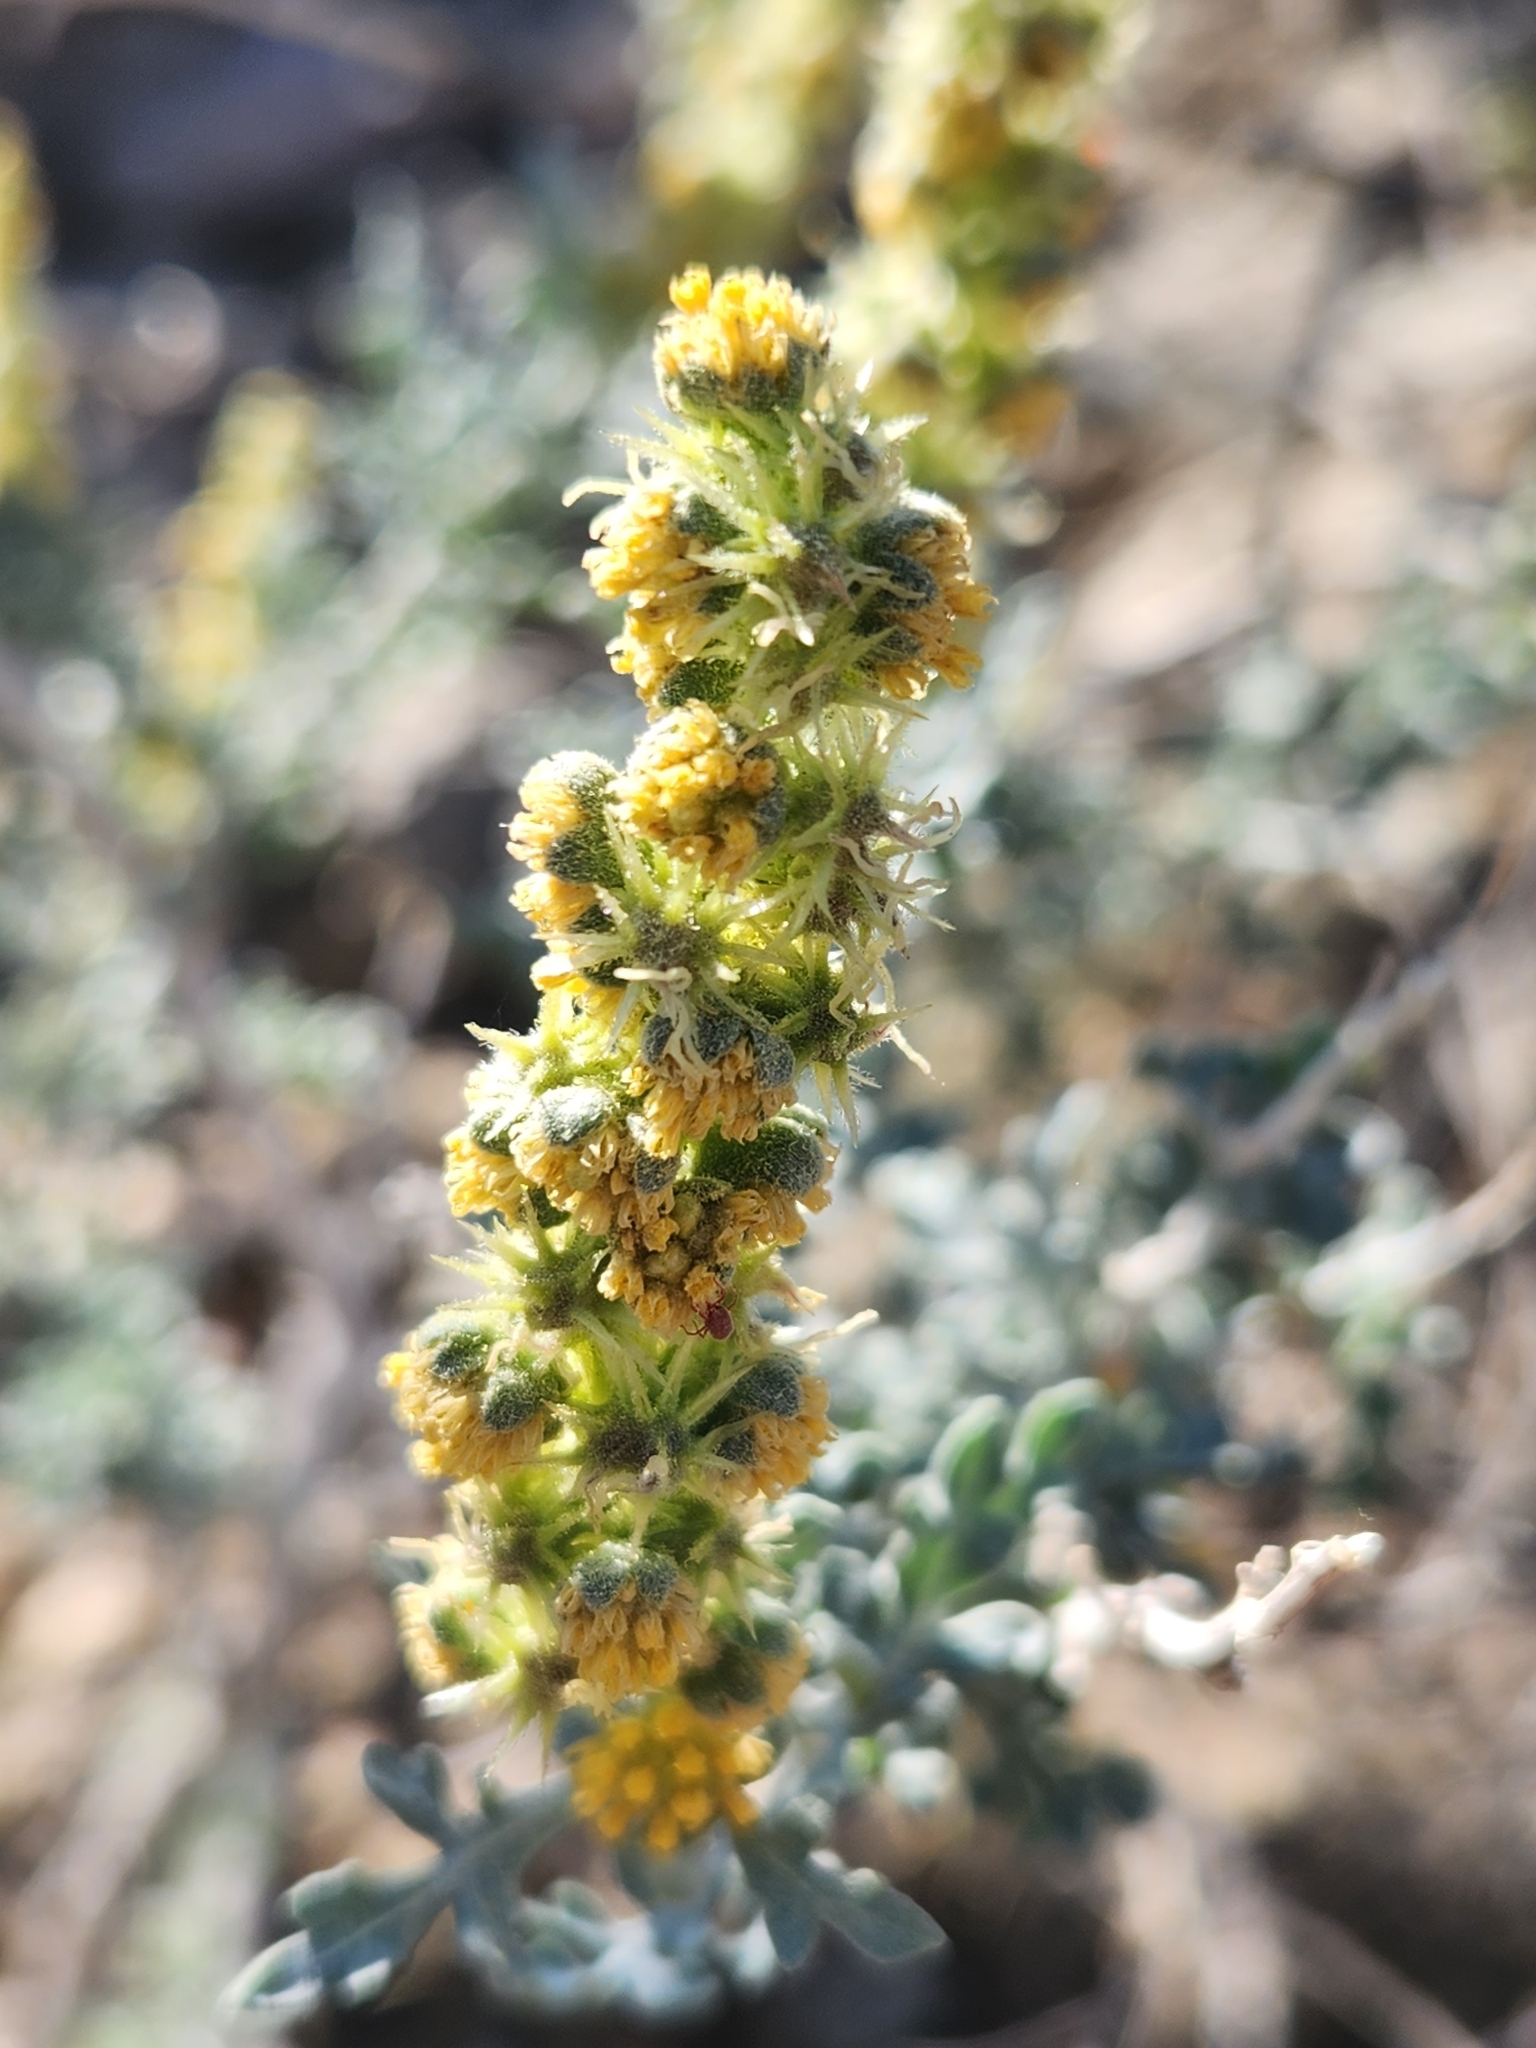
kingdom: Plantae
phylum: Tracheophyta
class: Magnoliopsida
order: Asterales
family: Asteraceae
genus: Ambrosia
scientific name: Ambrosia dumosa
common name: Bur-sage
